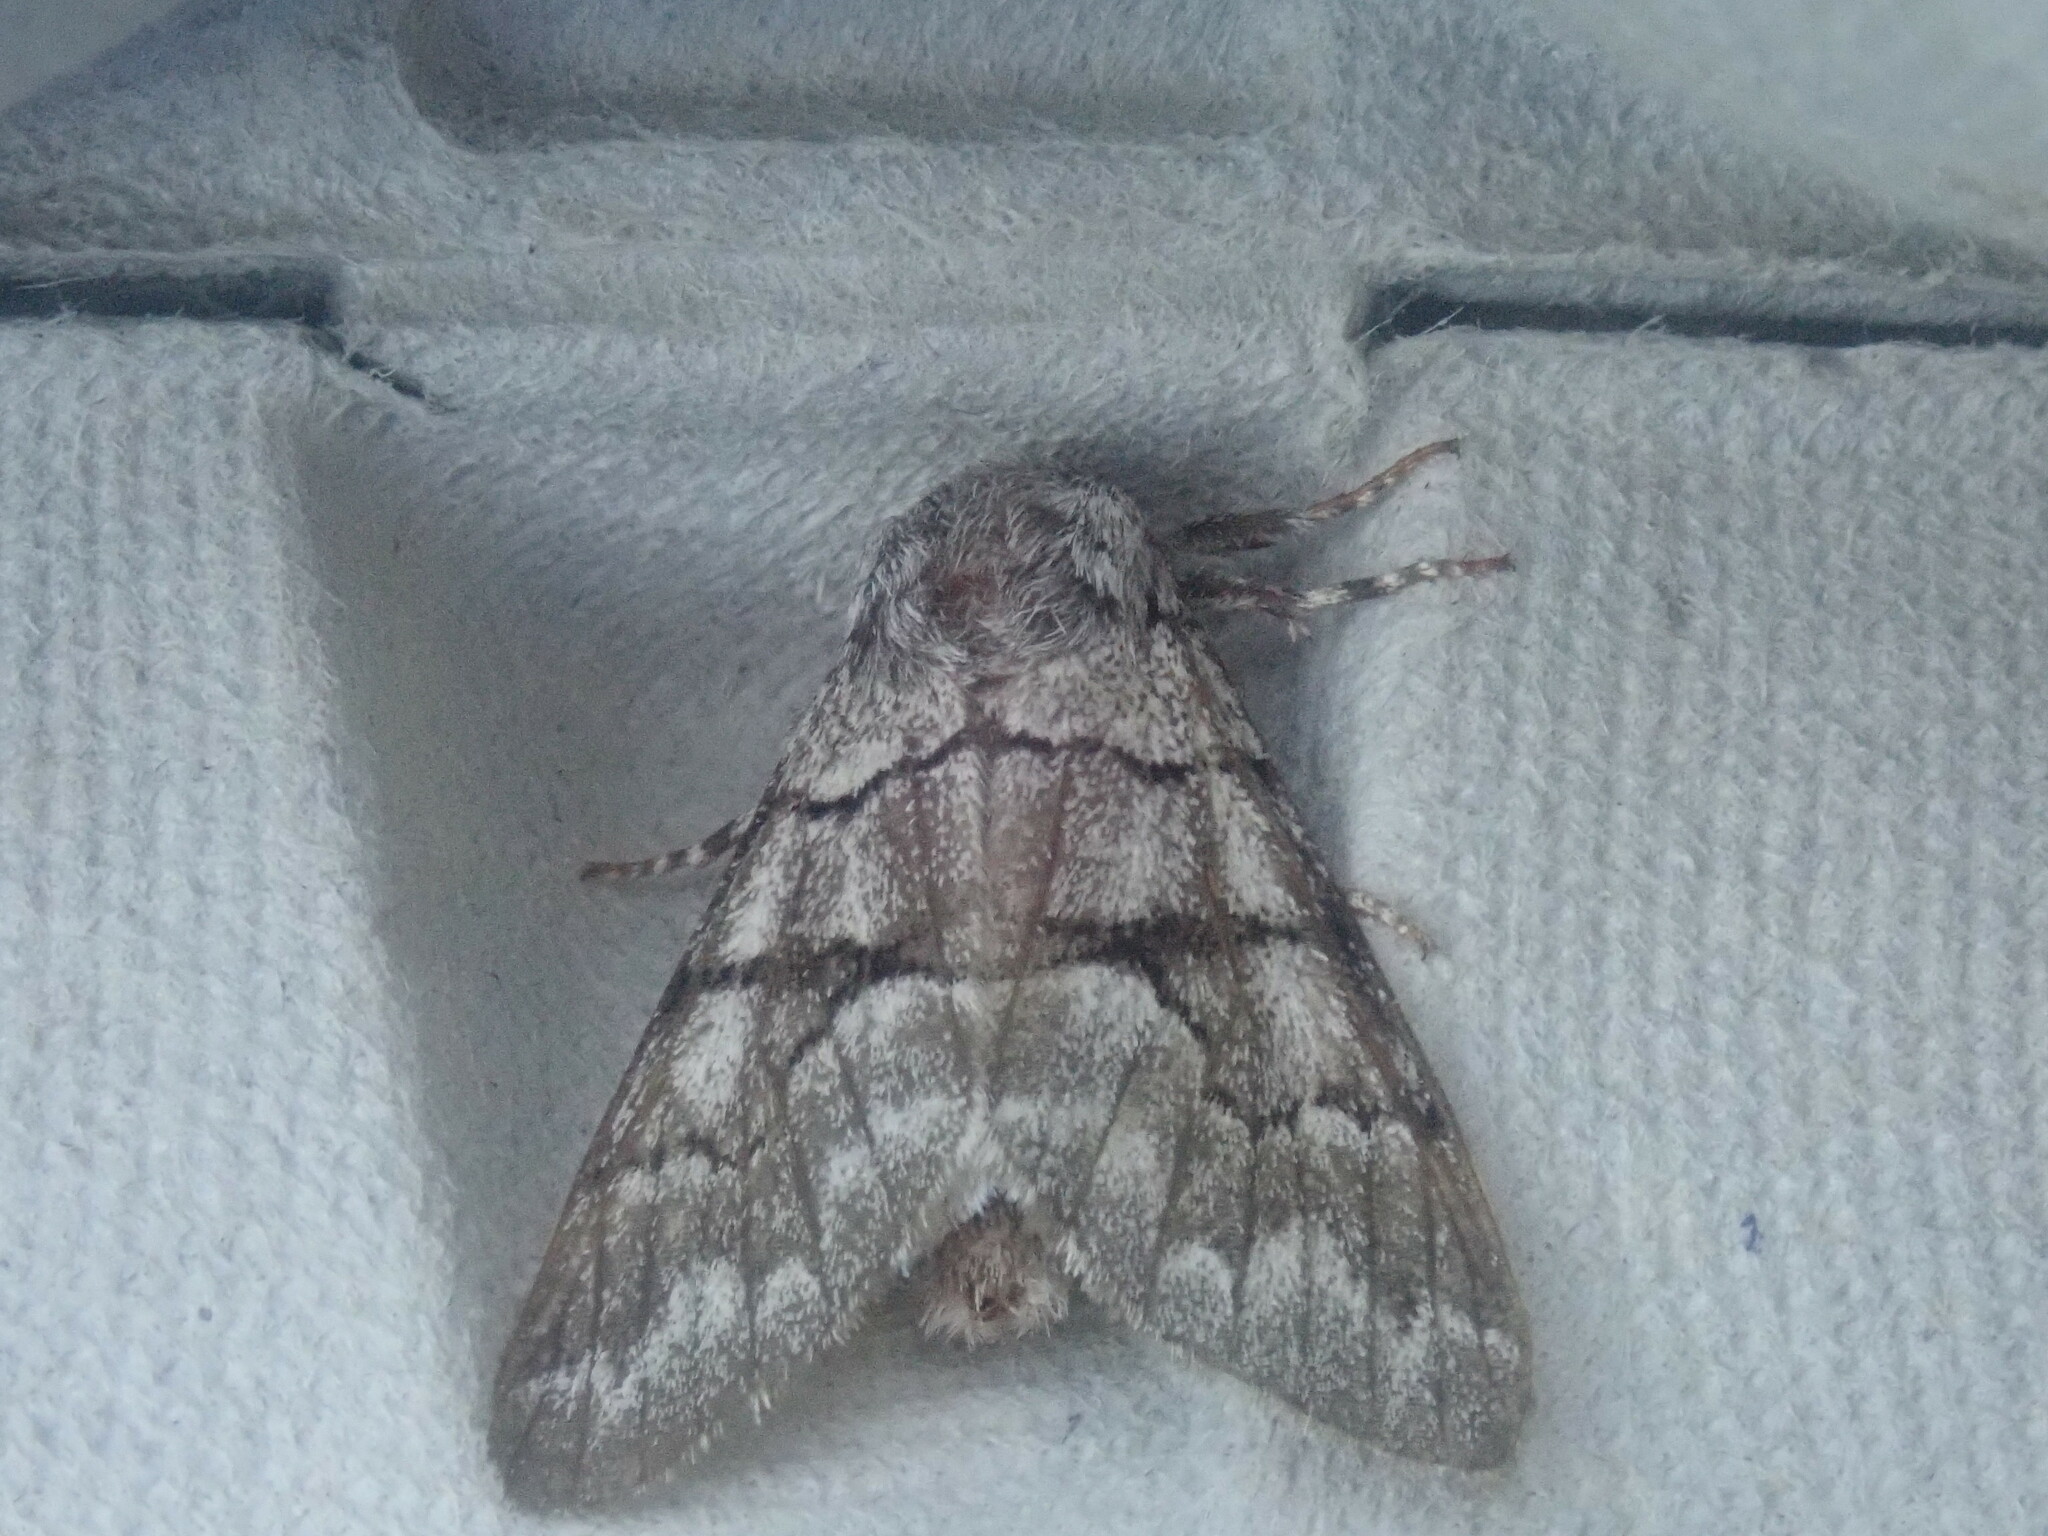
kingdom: Animalia
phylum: Arthropoda
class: Insecta
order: Lepidoptera
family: Noctuidae
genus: Panthea
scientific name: Panthea furcilla
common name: Eastern panthea moth
